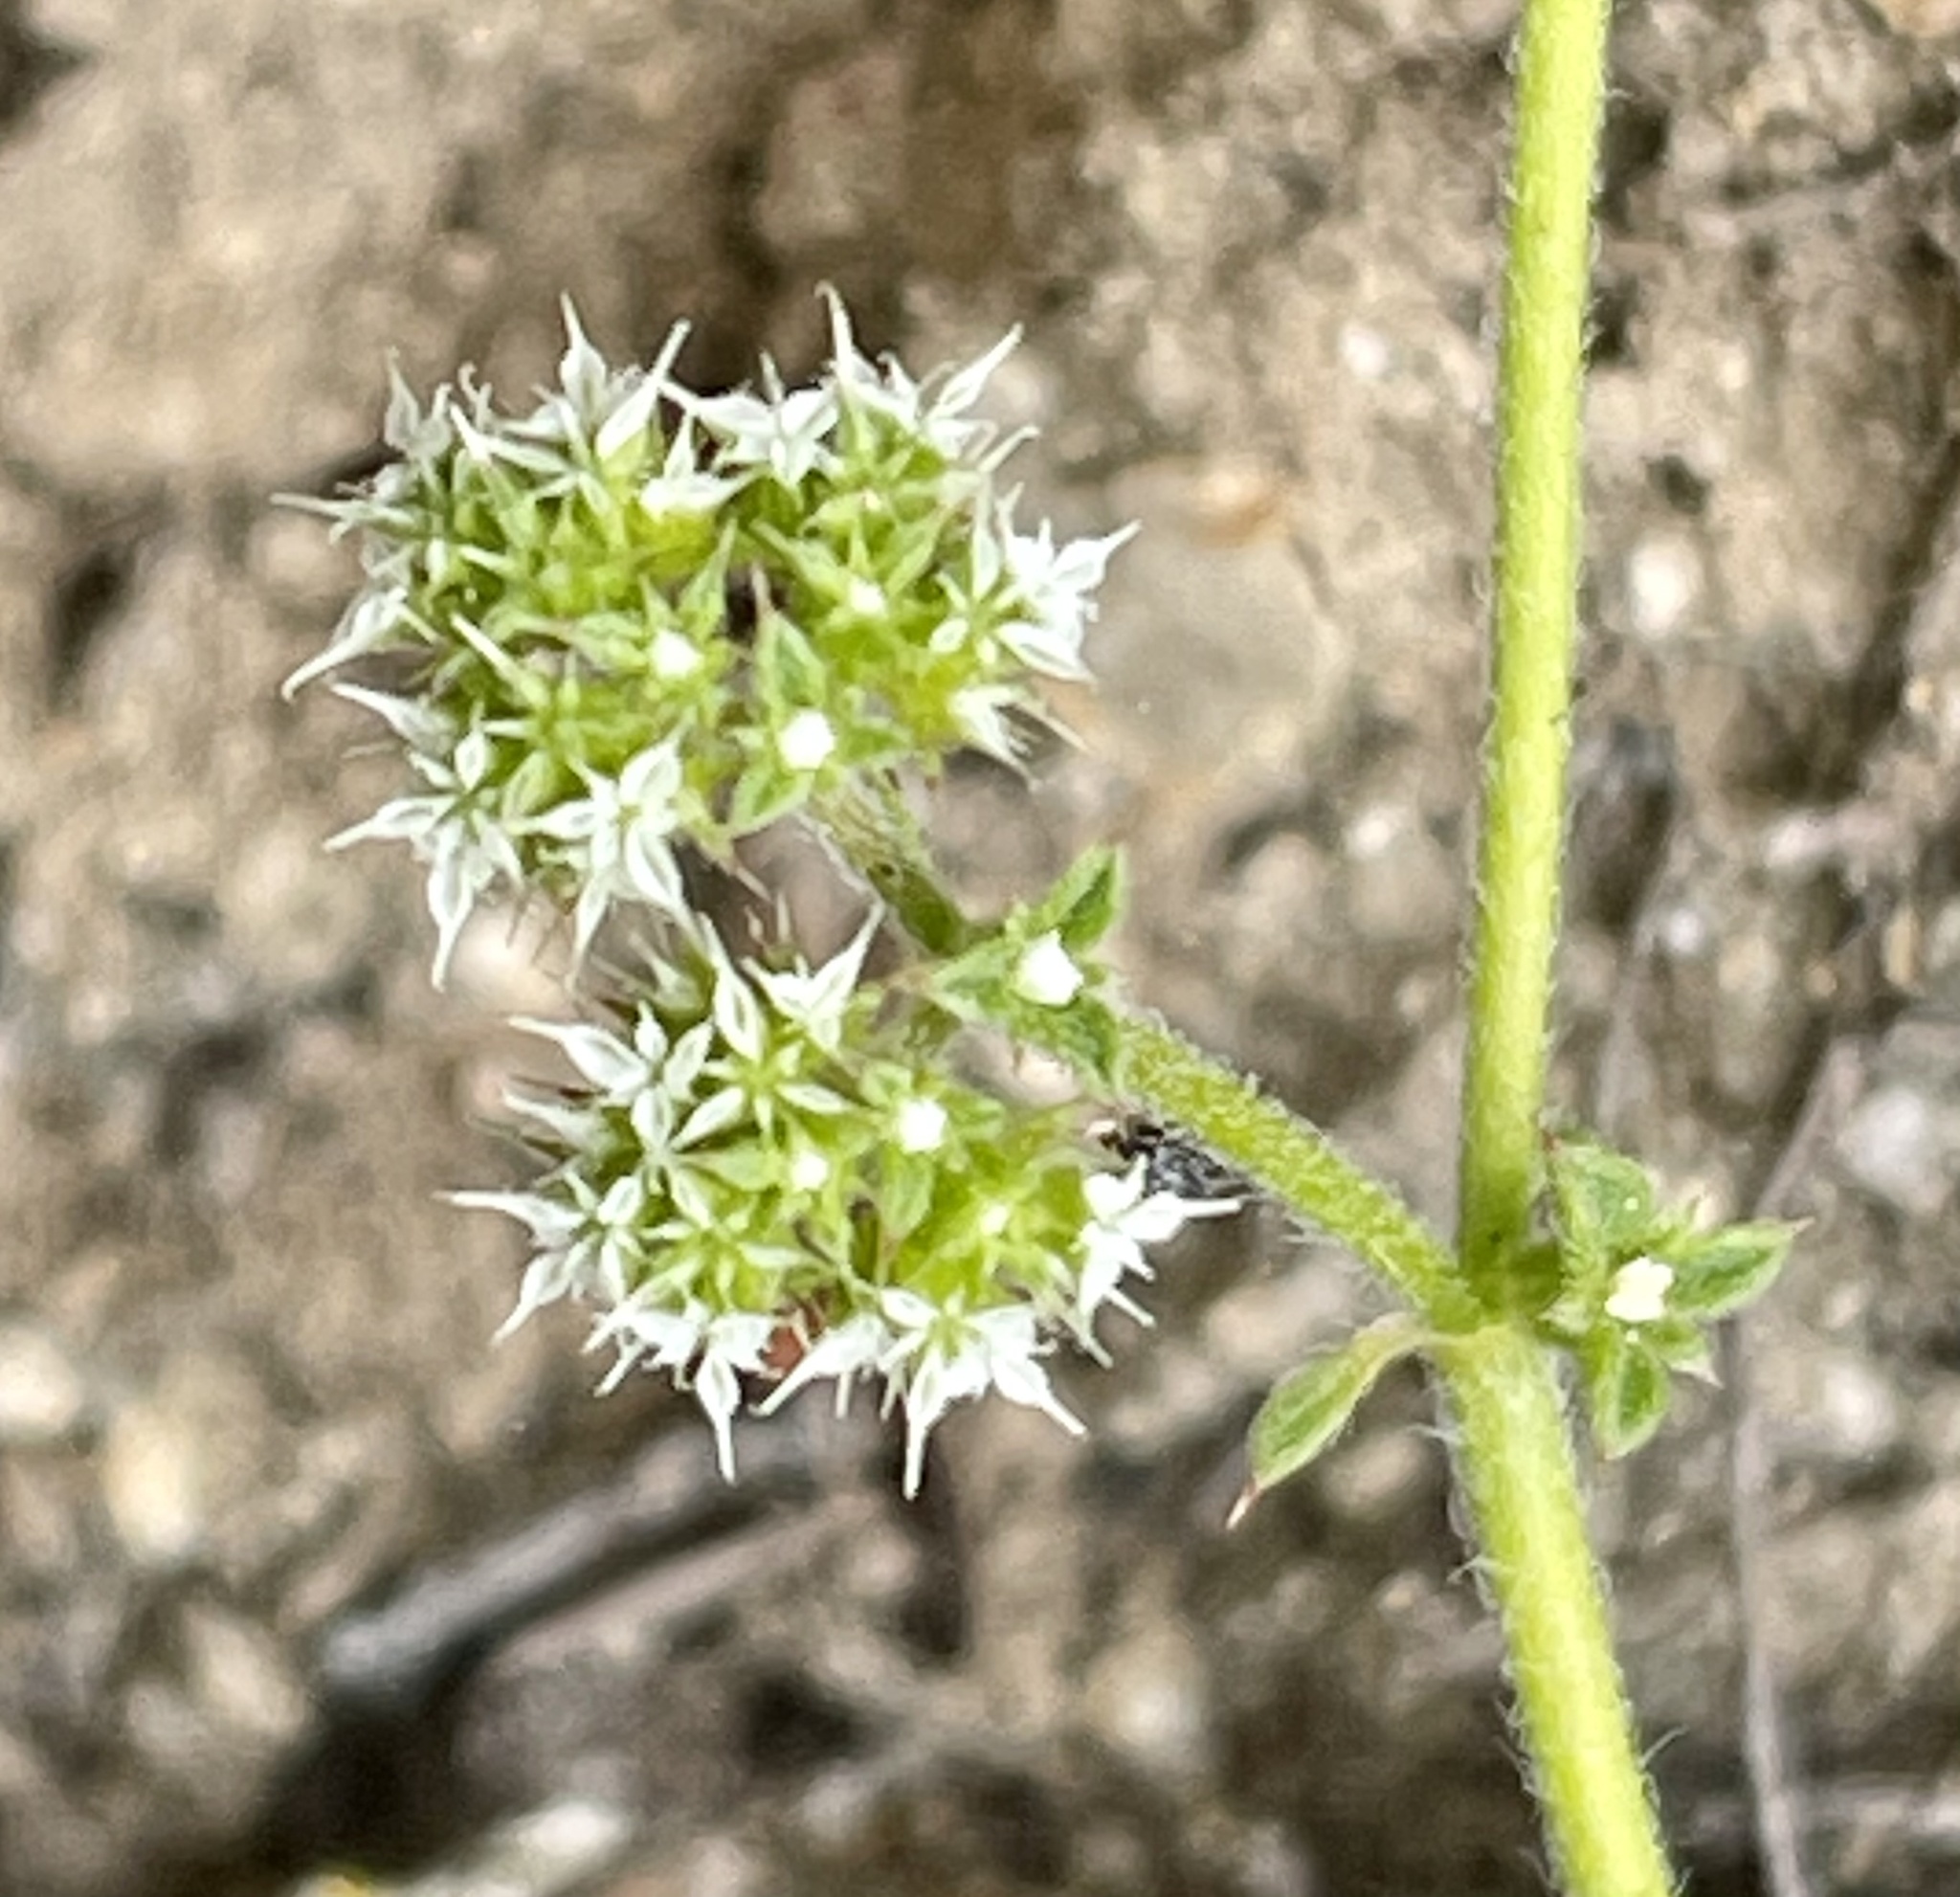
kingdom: Plantae
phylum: Tracheophyta
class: Magnoliopsida
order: Caryophyllales
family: Polygonaceae
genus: Chorizanthe
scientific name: Chorizanthe diffusa
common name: Diffuse spineflower
